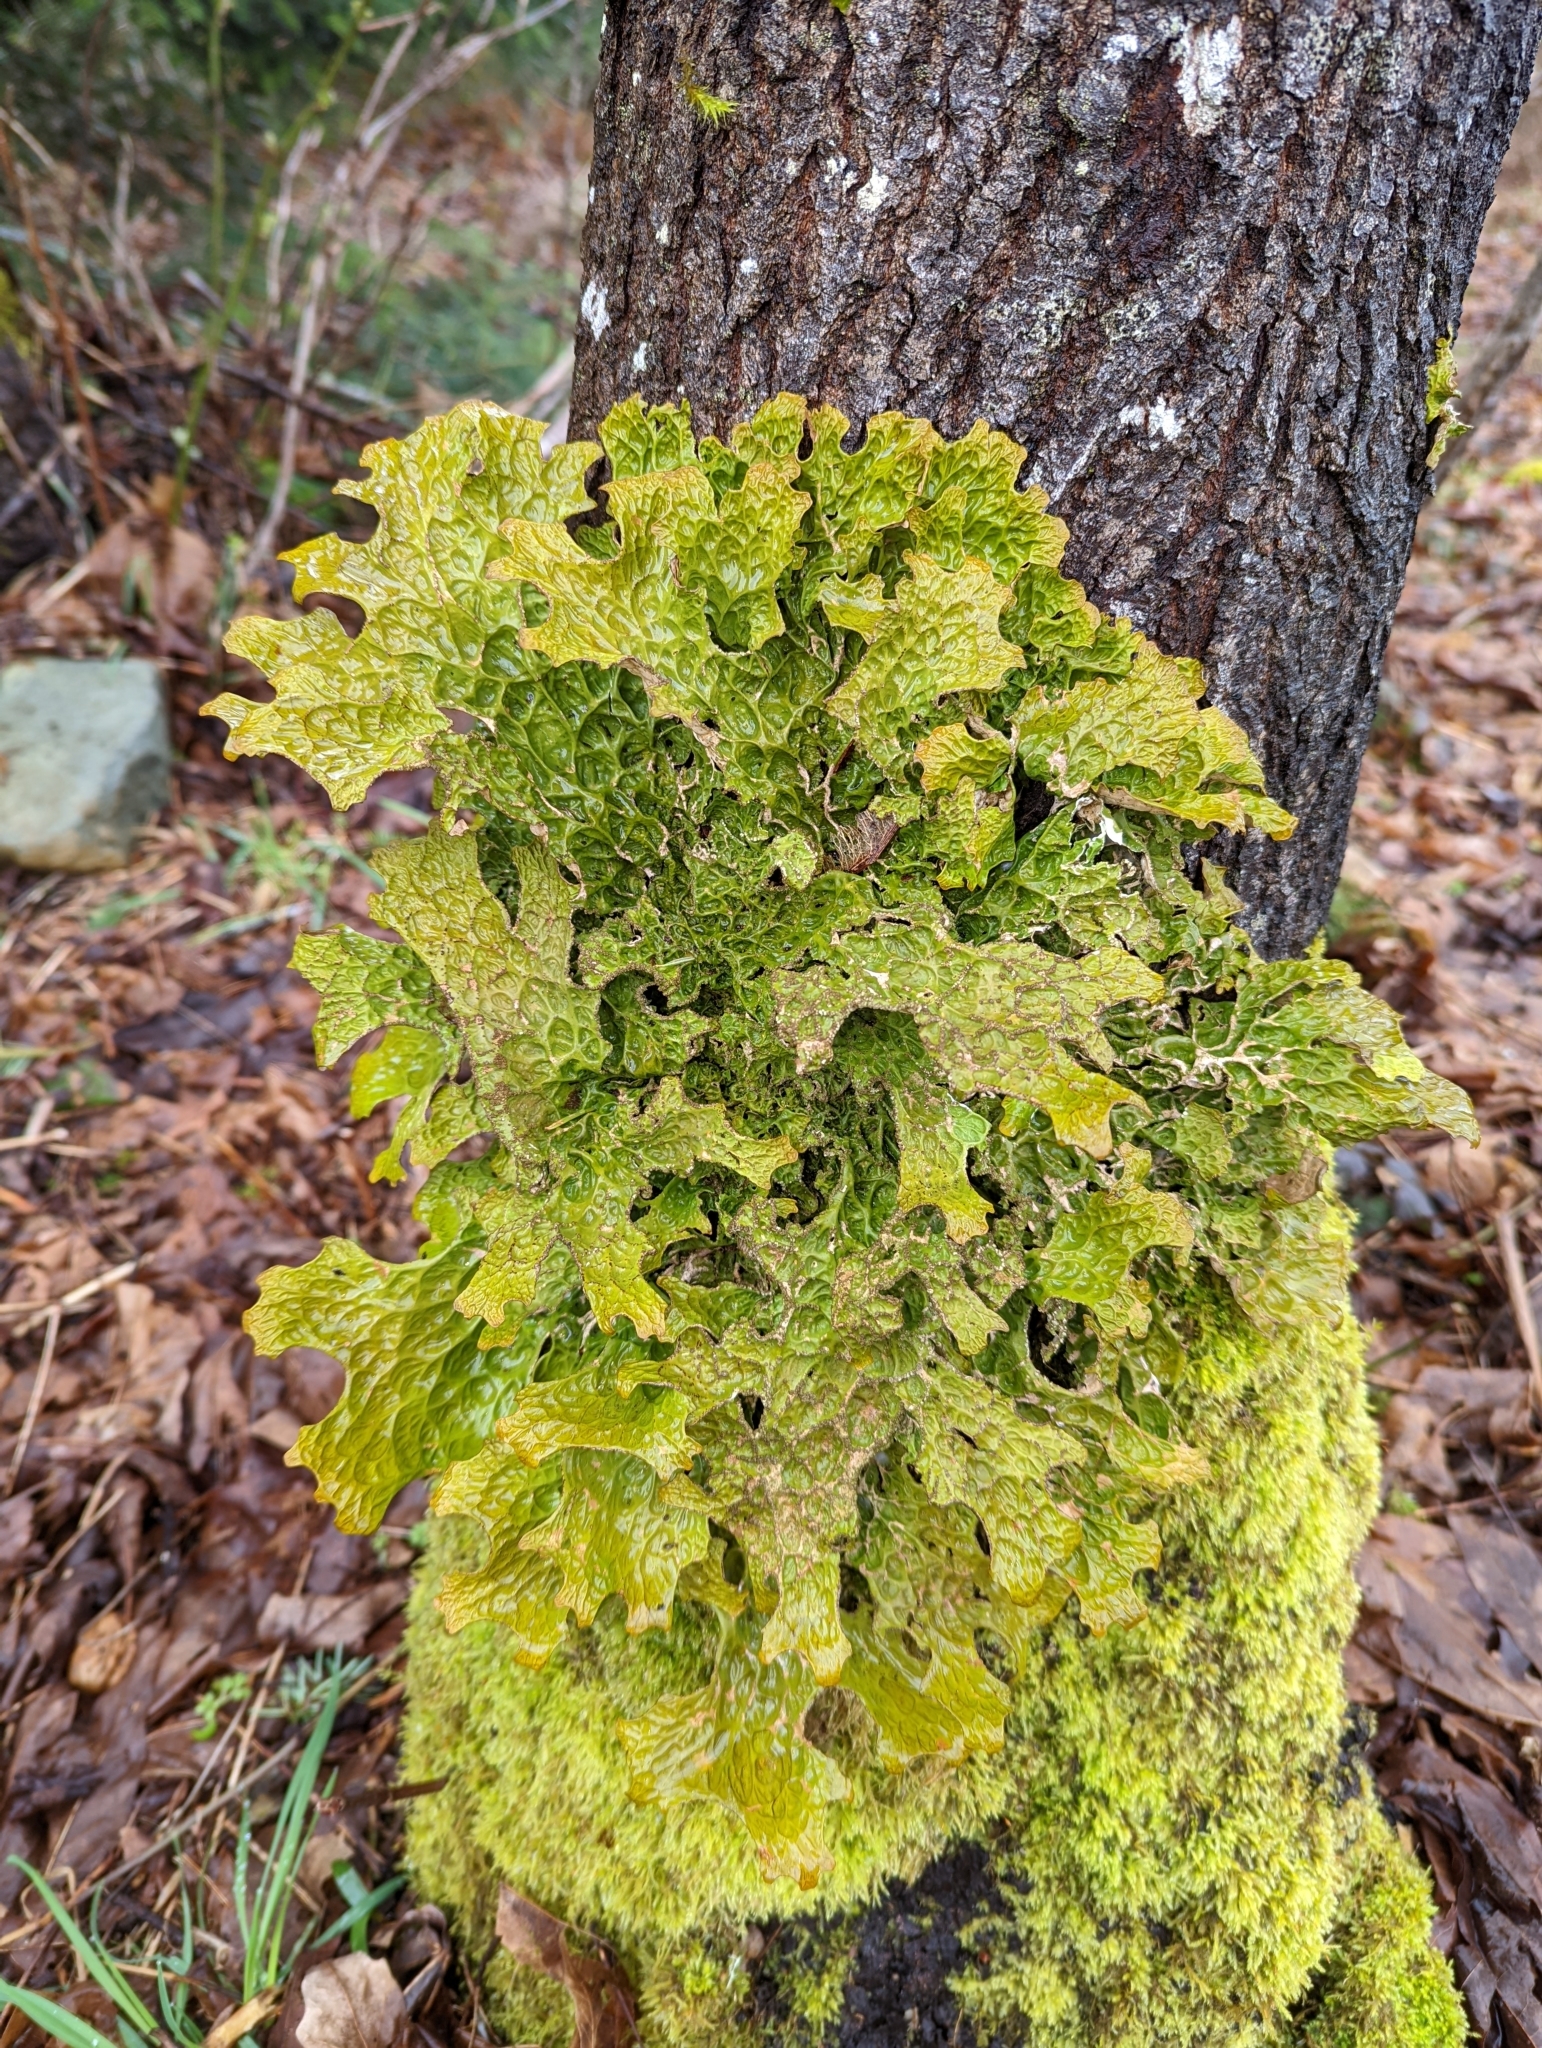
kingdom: Fungi
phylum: Ascomycota
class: Lecanoromycetes
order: Peltigerales
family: Lobariaceae
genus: Lobaria
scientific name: Lobaria pulmonaria
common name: Lungwort
